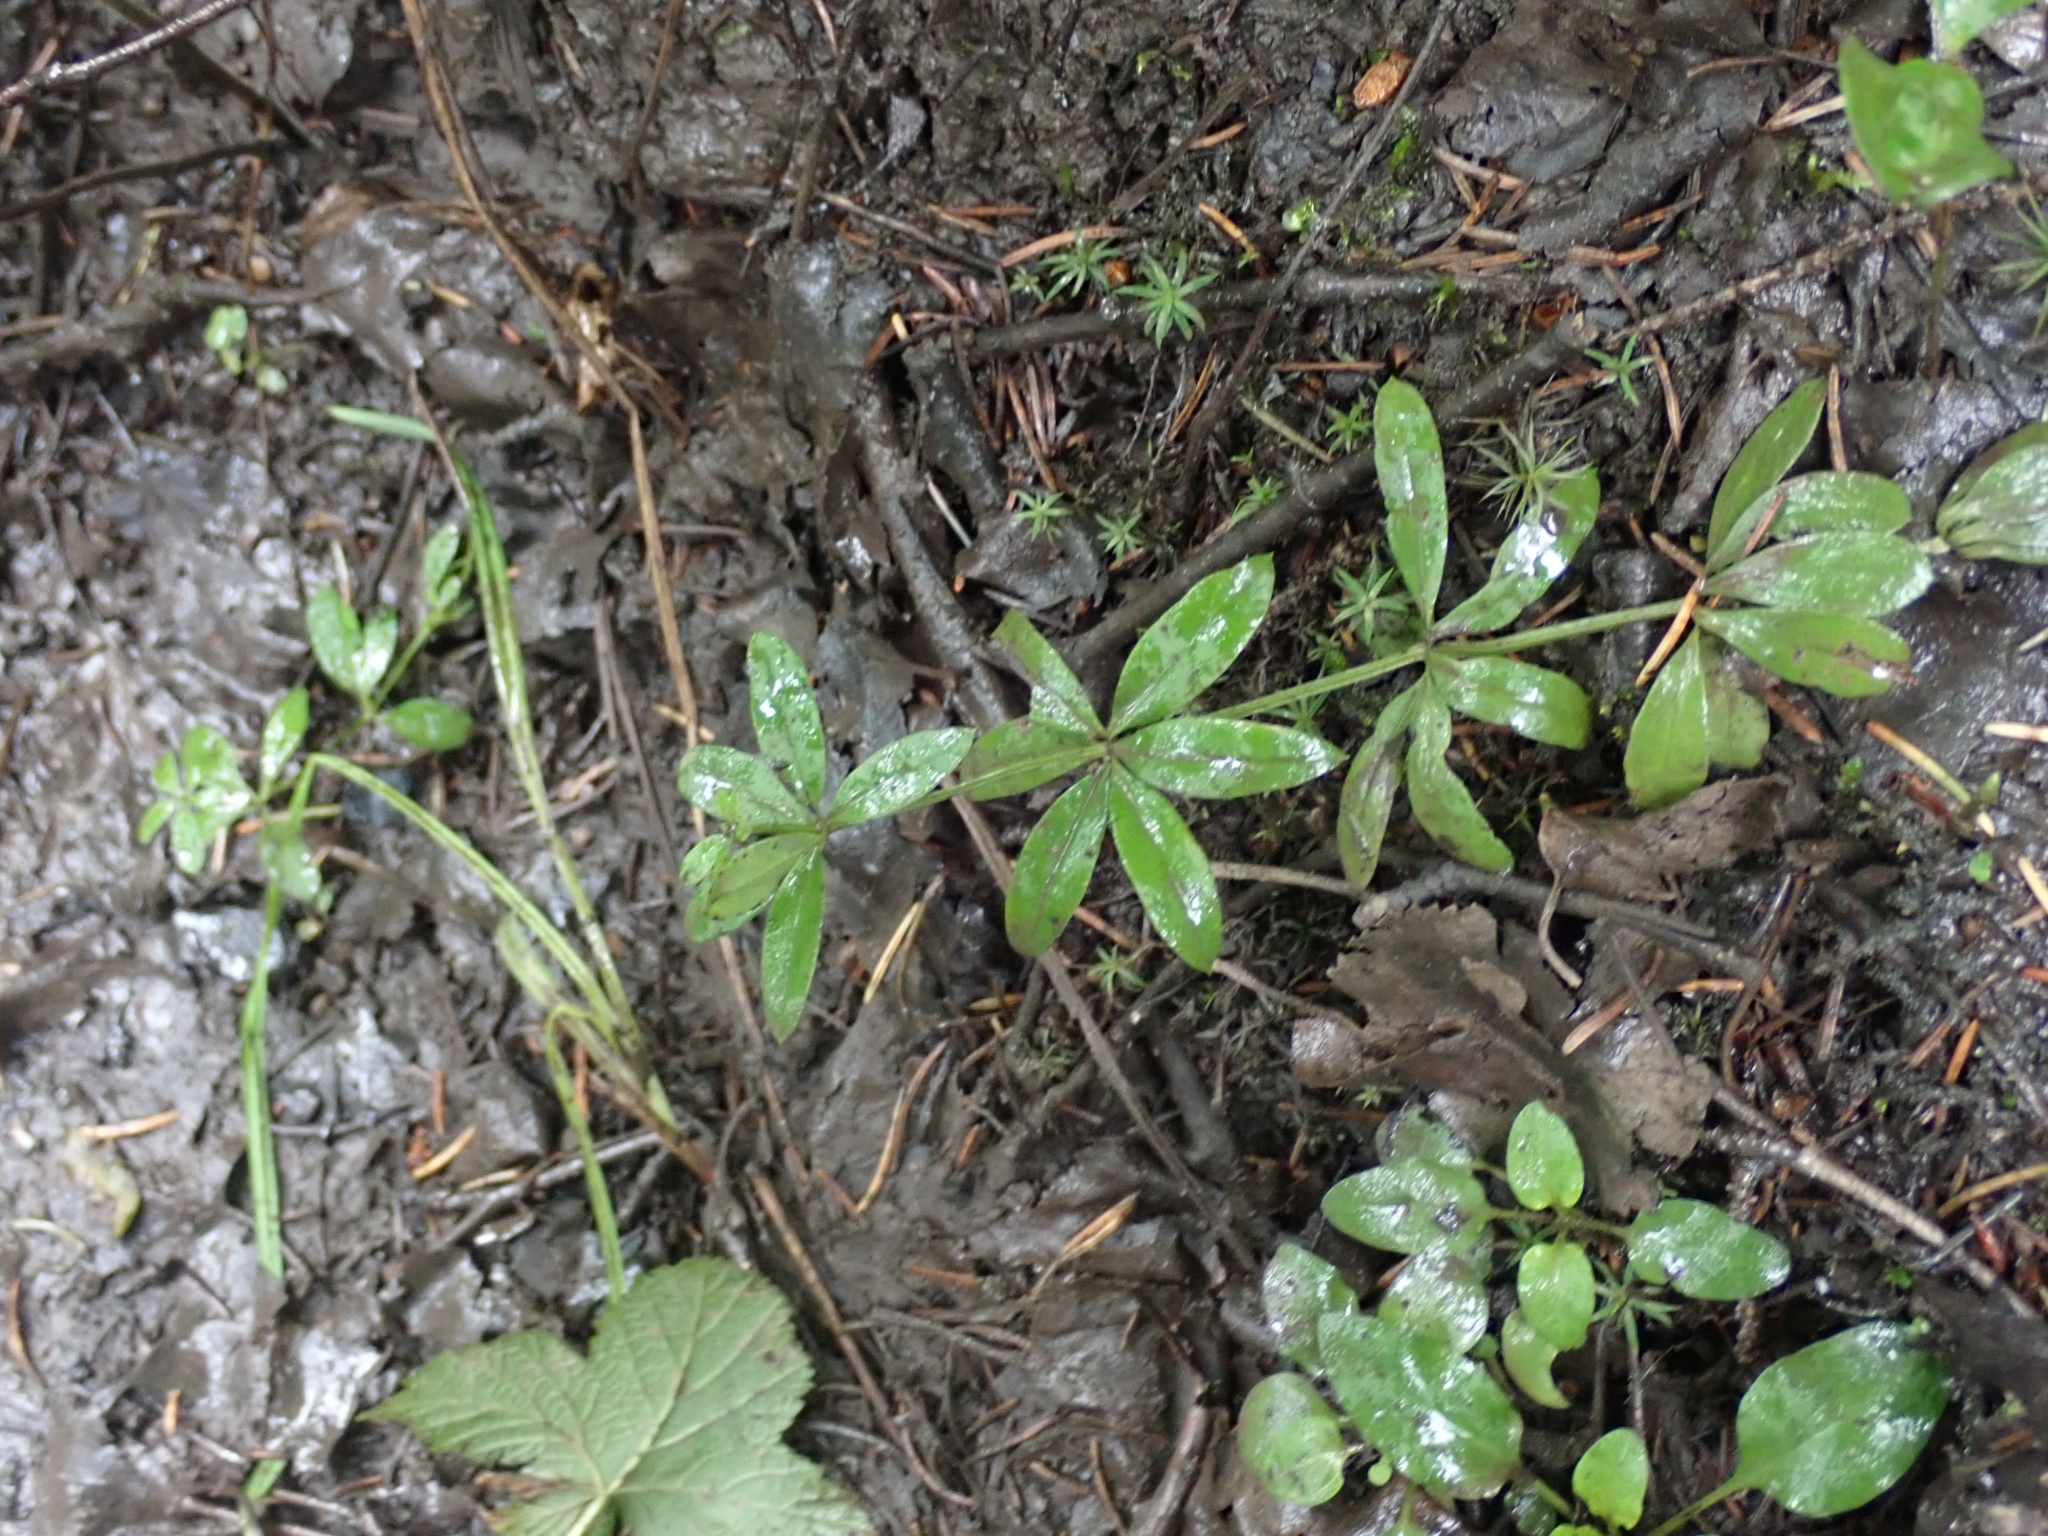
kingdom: Plantae
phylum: Tracheophyta
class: Magnoliopsida
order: Gentianales
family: Rubiaceae
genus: Galium
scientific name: Galium triflorum
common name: Fragrant bedstraw
